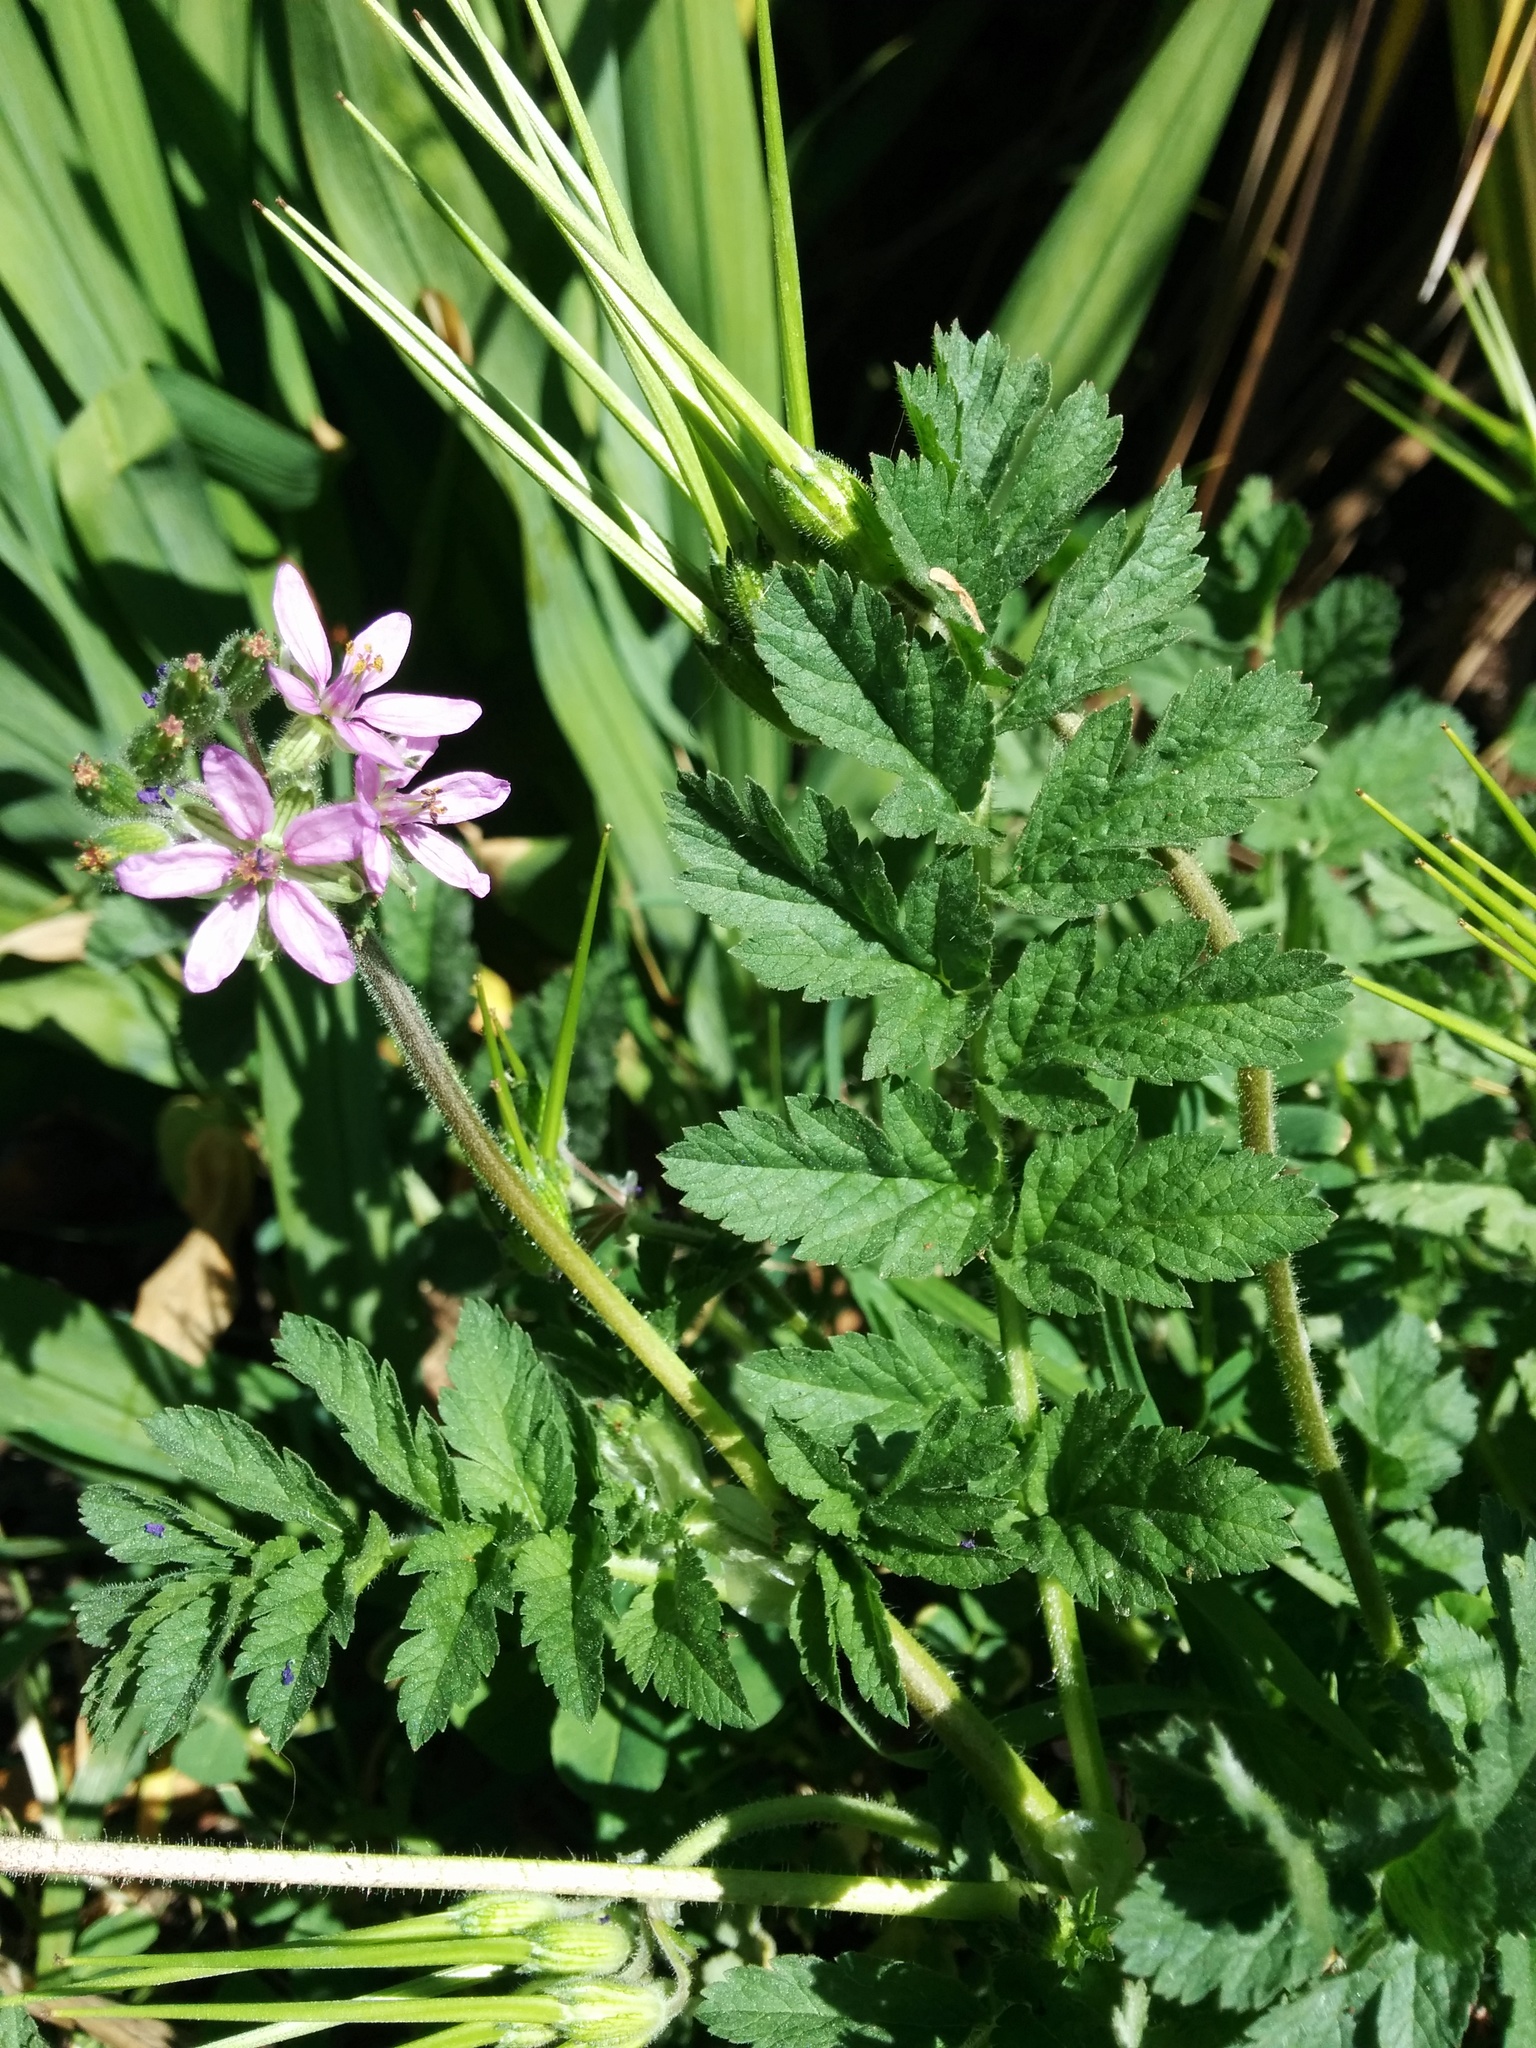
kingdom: Plantae
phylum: Tracheophyta
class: Magnoliopsida
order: Geraniales
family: Geraniaceae
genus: Erodium
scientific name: Erodium moschatum
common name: Musk stork's-bill
